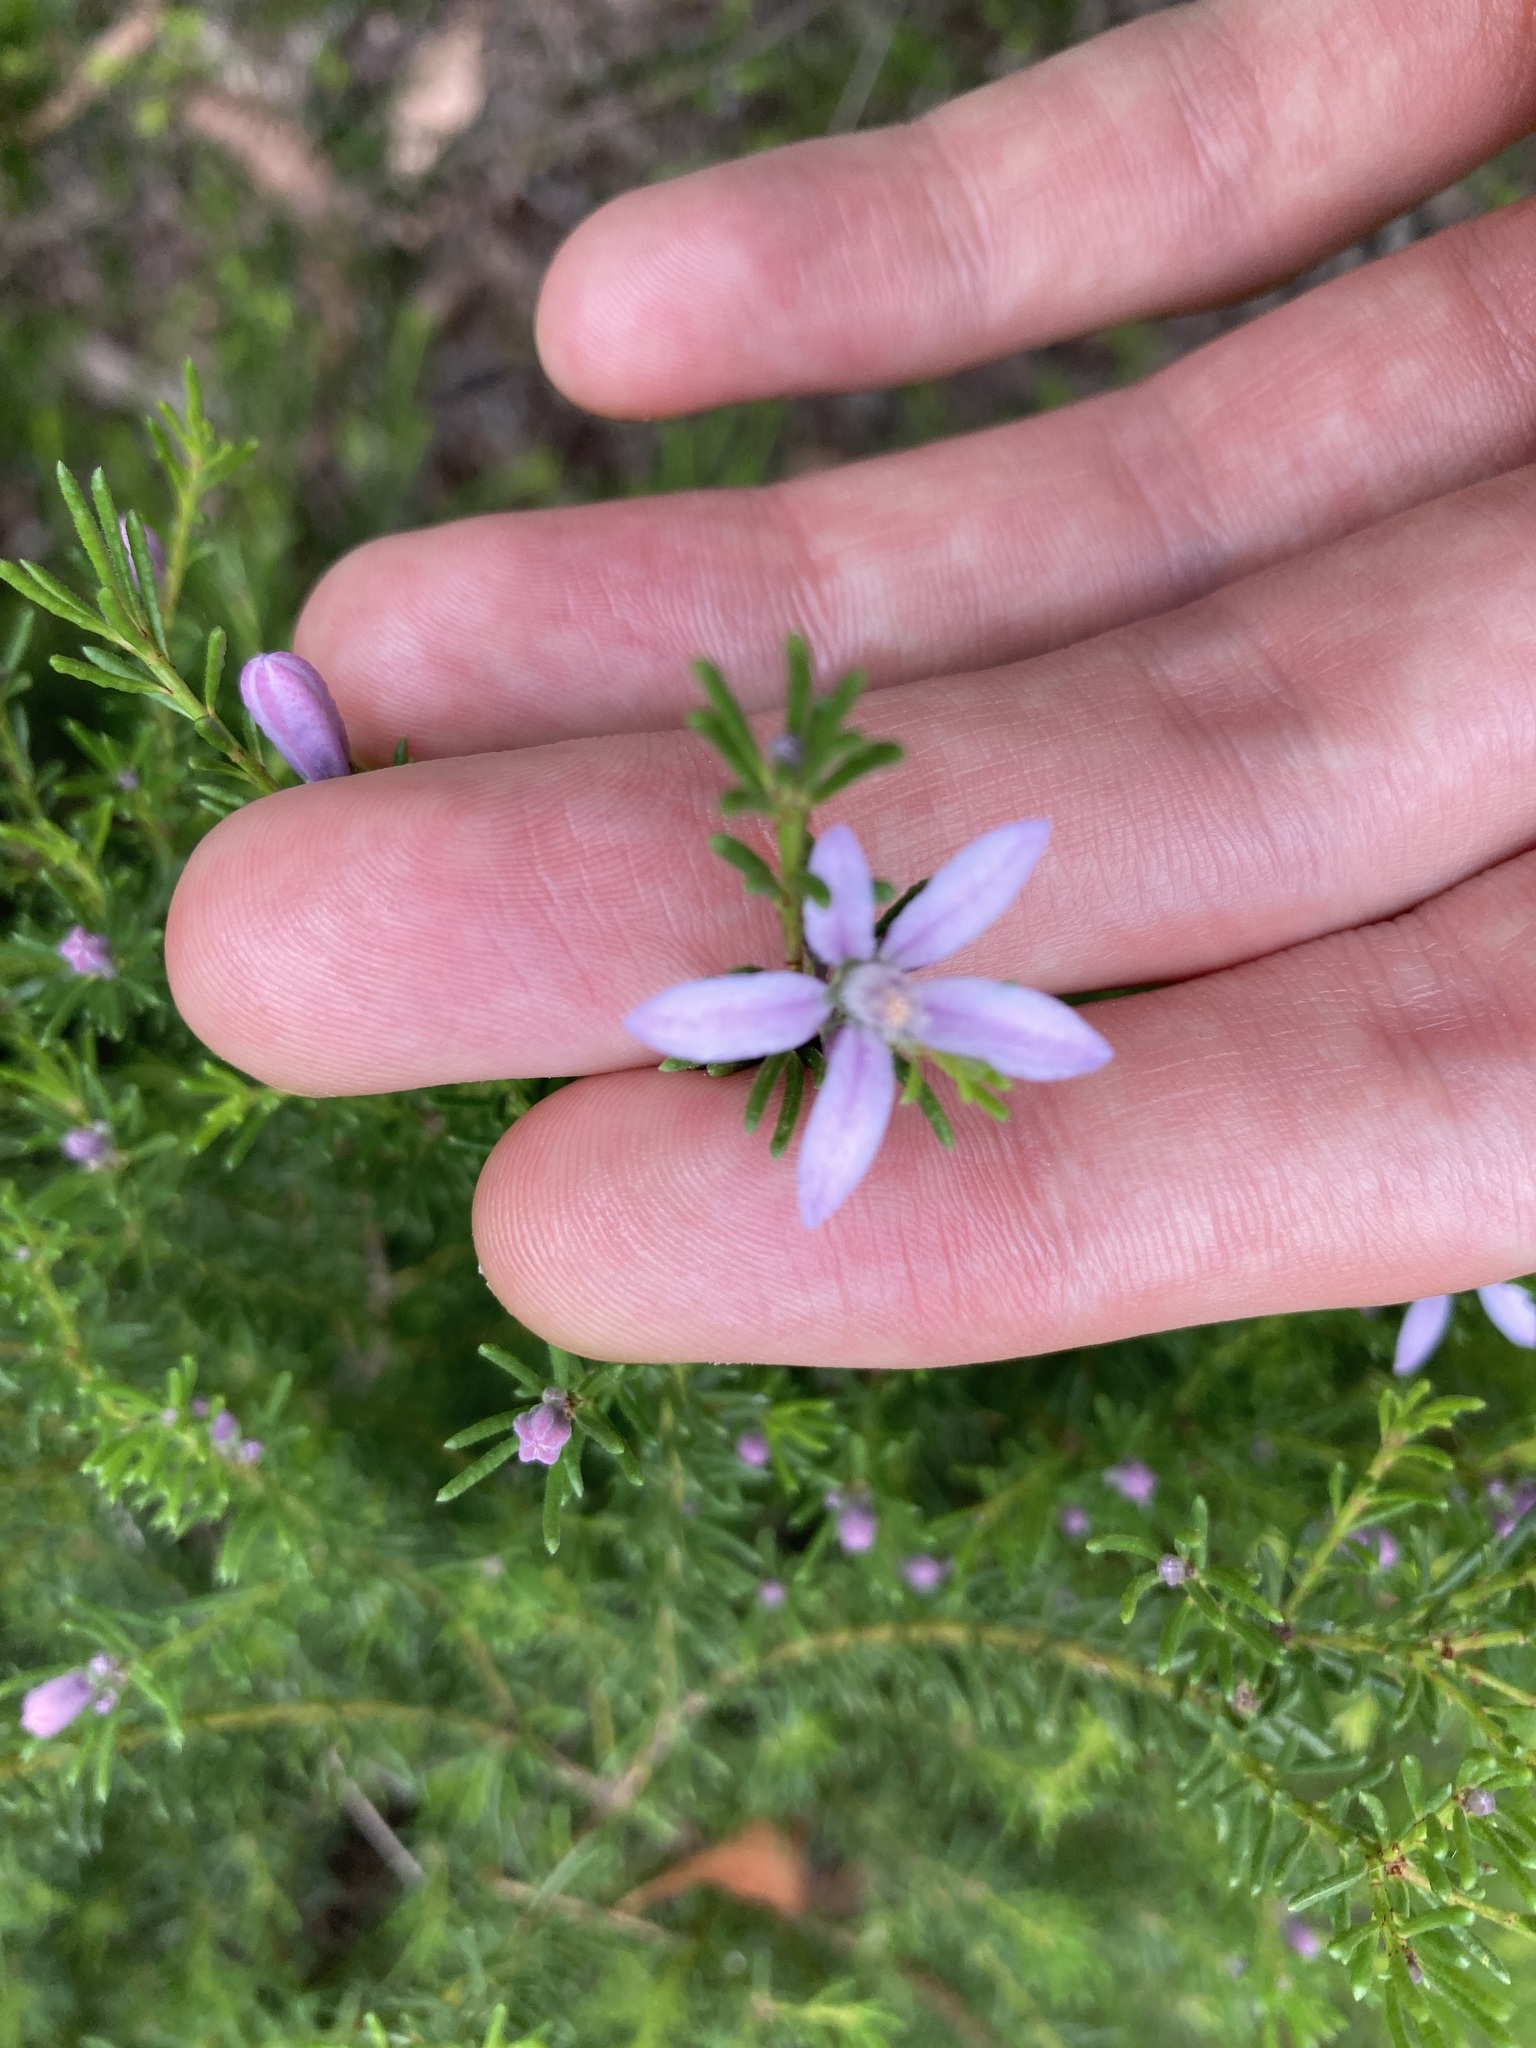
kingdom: Plantae
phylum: Tracheophyta
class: Magnoliopsida
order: Sapindales
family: Rutaceae
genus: Philotheca
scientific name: Philotheca salsolifolia
